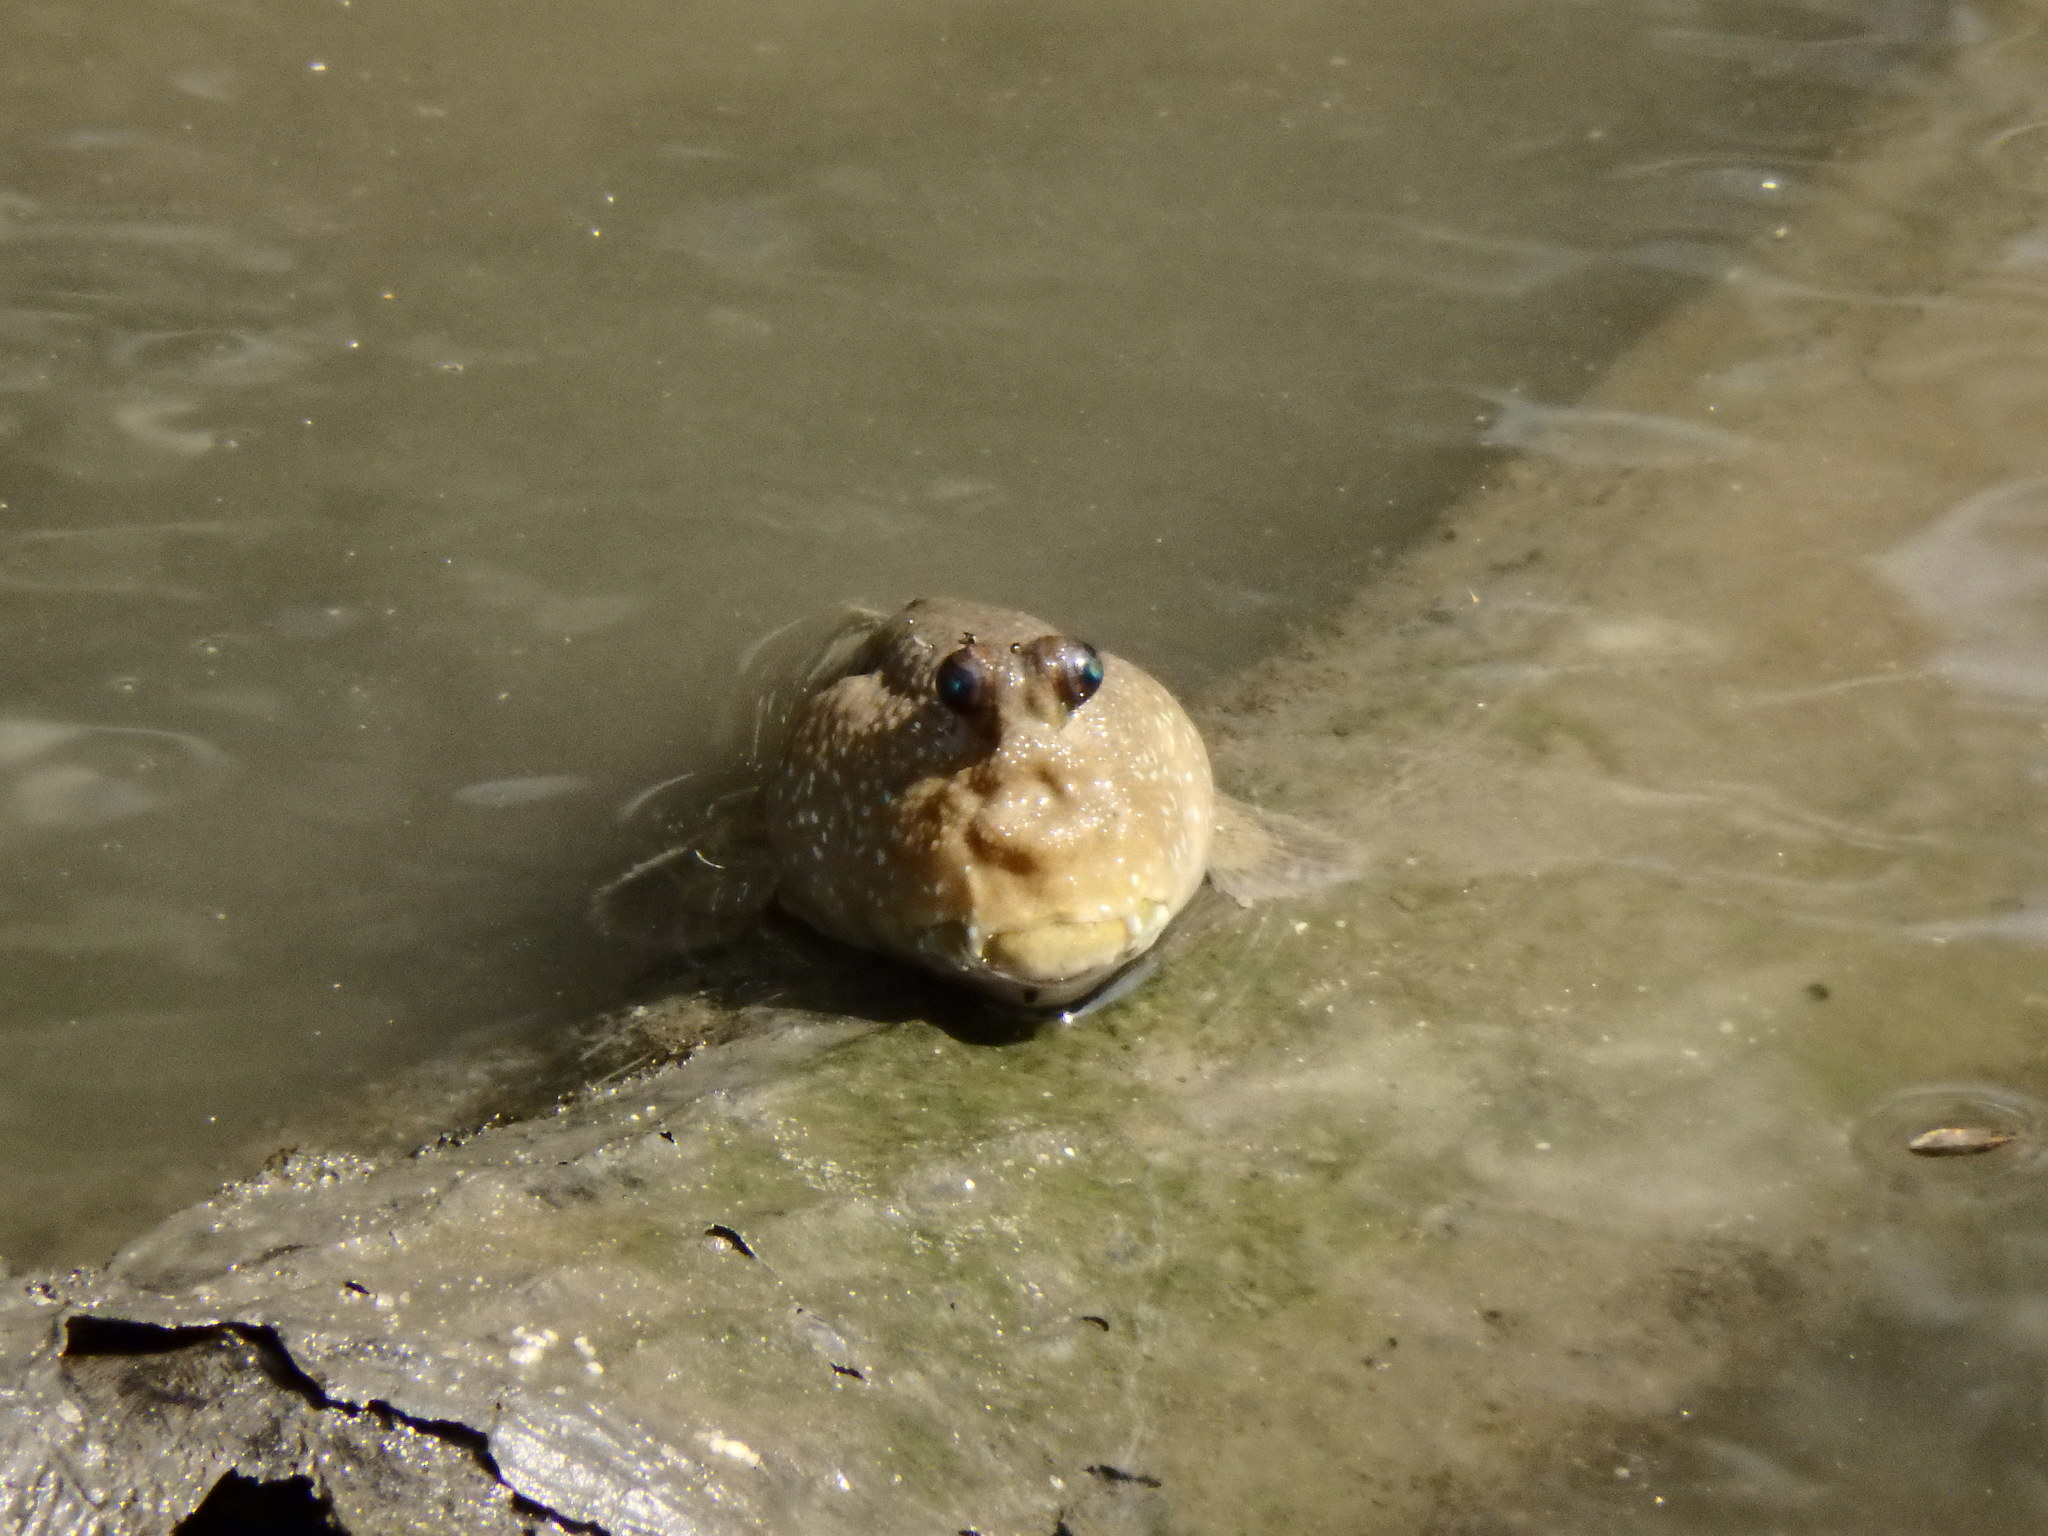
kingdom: Animalia
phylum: Chordata
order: Perciformes
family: Gobiidae
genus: Periophthalmodon
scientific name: Periophthalmodon schlosseri
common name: Giant mudskipper
